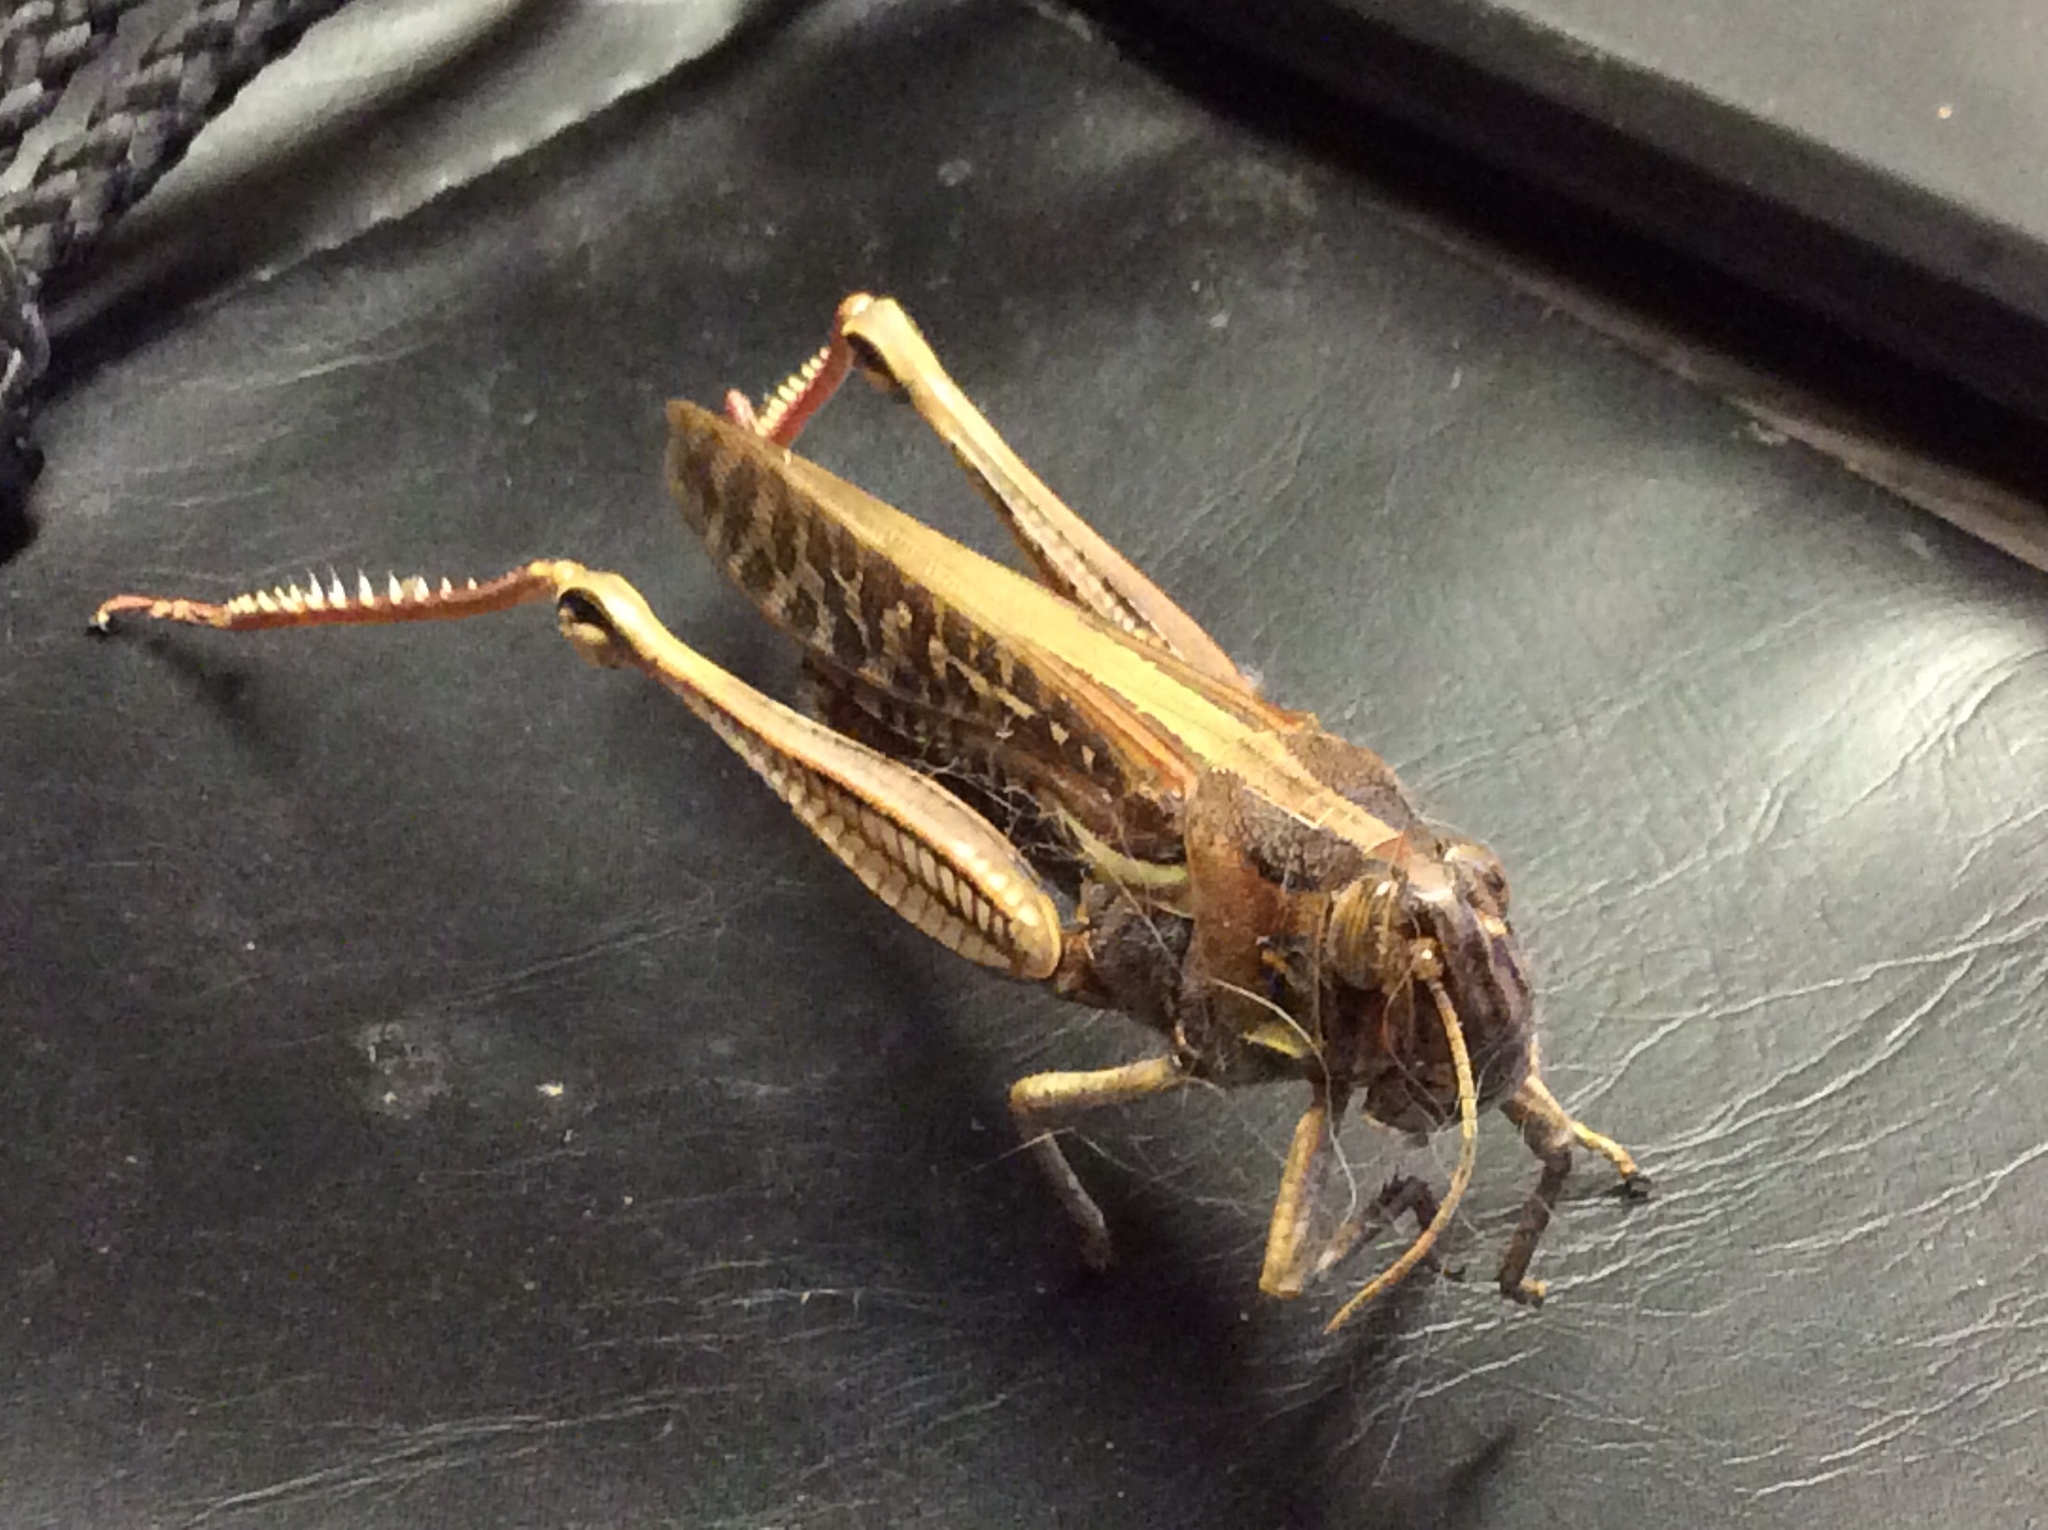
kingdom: Animalia
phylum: Arthropoda
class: Insecta
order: Orthoptera
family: Acrididae
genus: Schistocerca
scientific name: Schistocerca americana
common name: American bird locust
